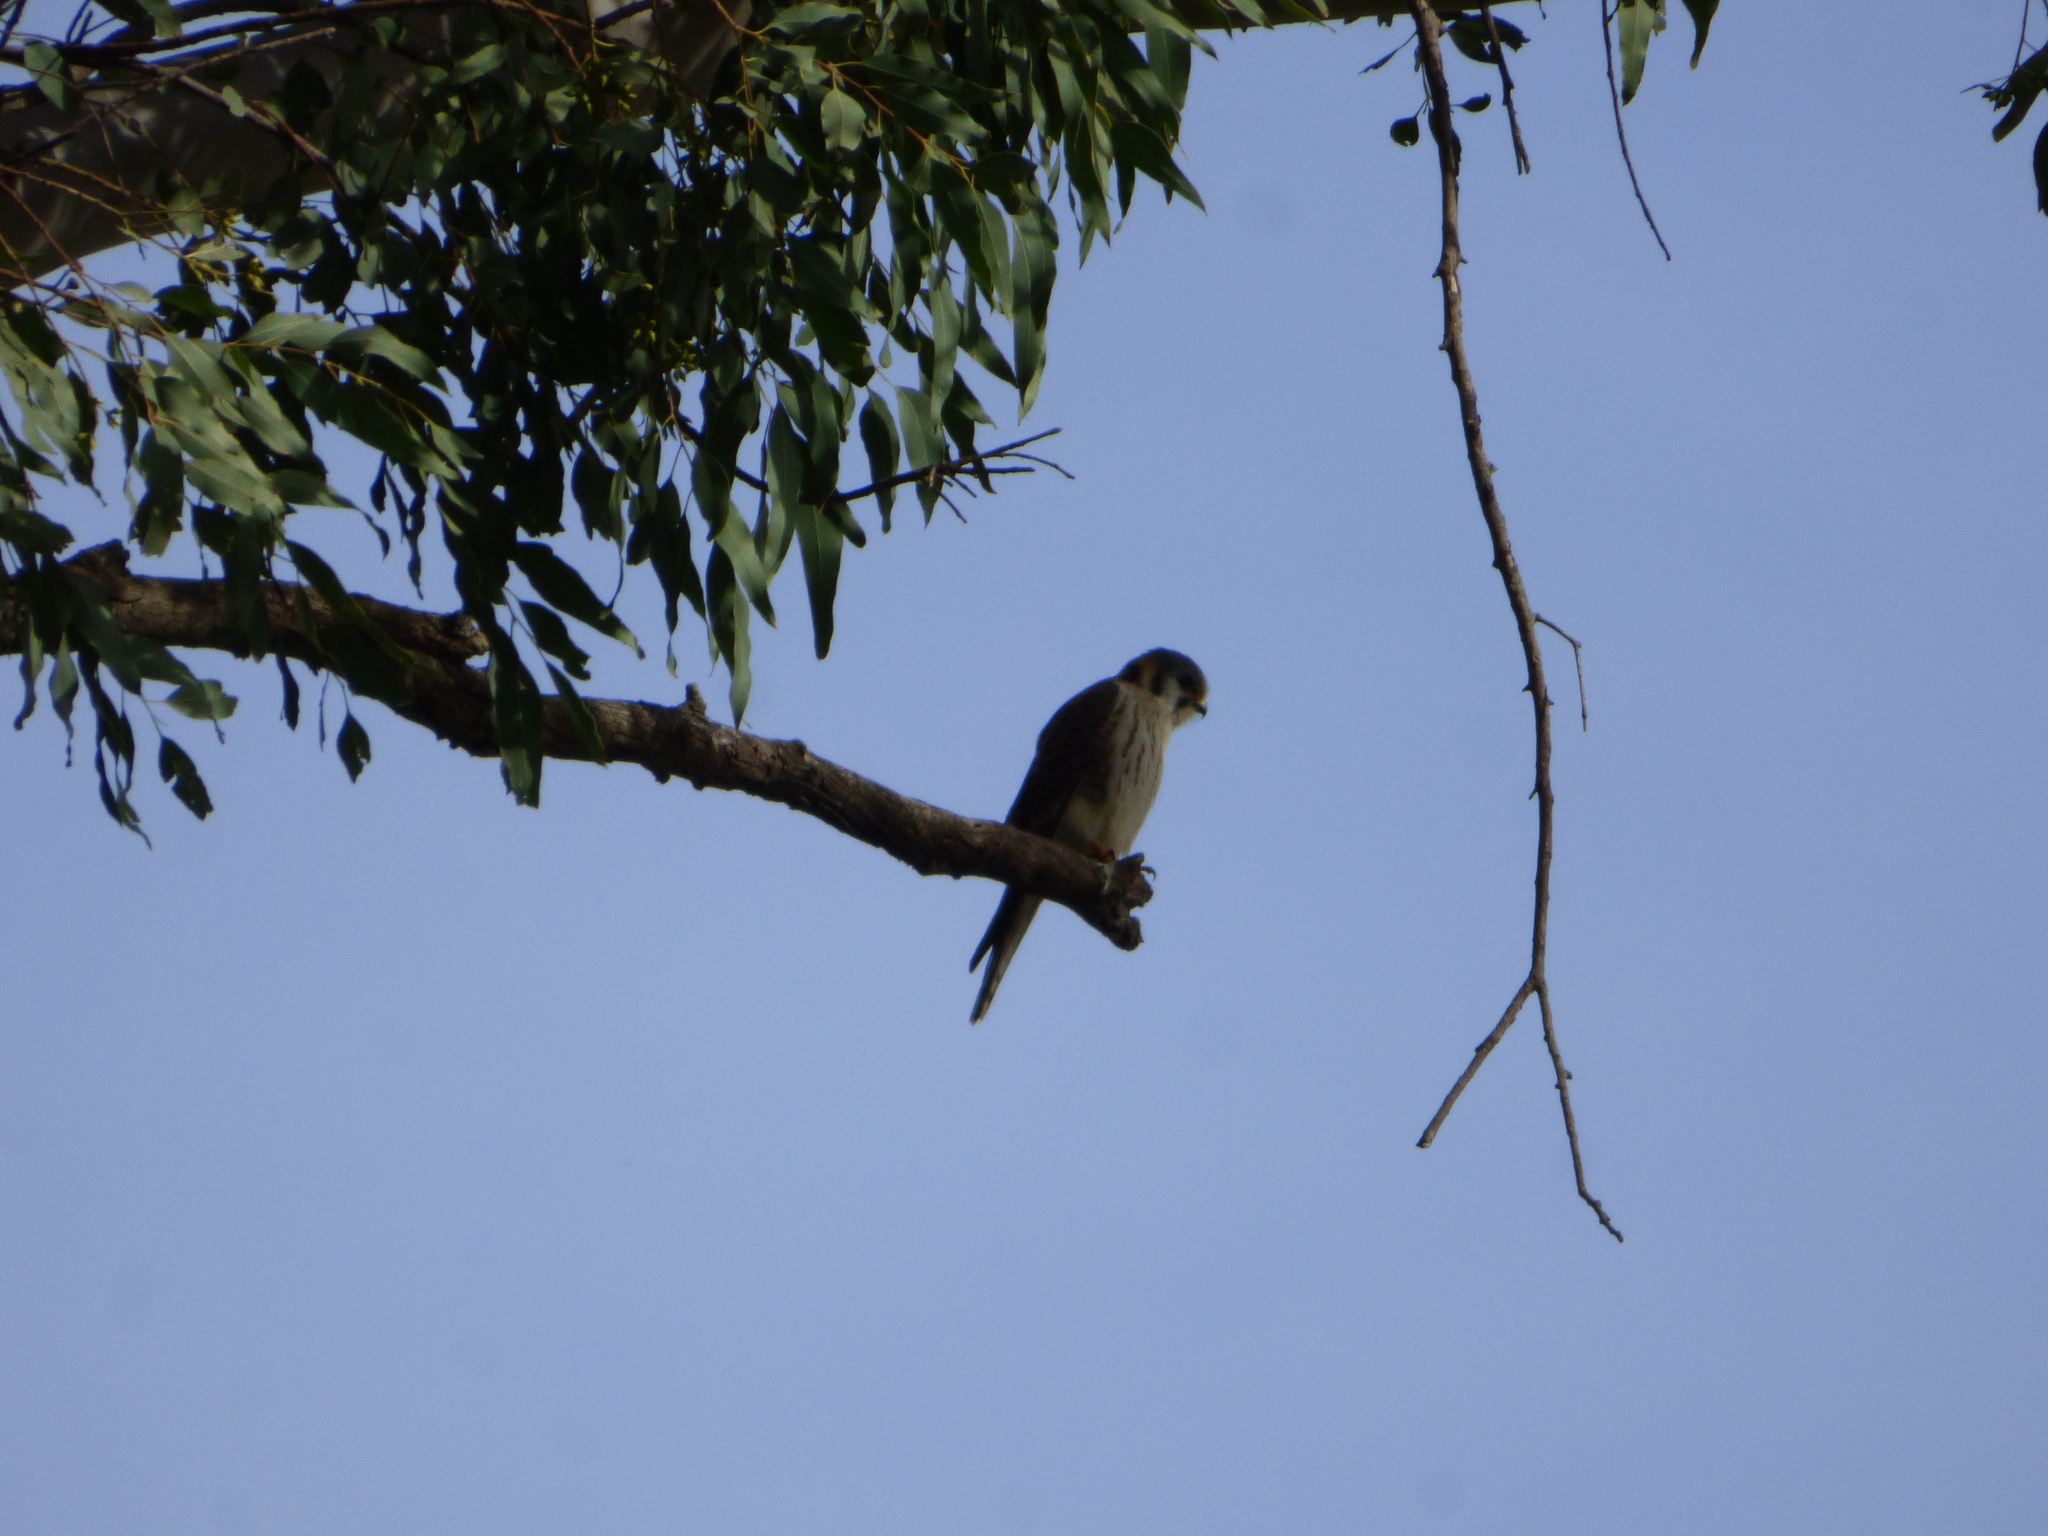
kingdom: Animalia
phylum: Chordata
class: Aves
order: Falconiformes
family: Falconidae
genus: Falco
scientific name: Falco sparverius
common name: American kestrel
